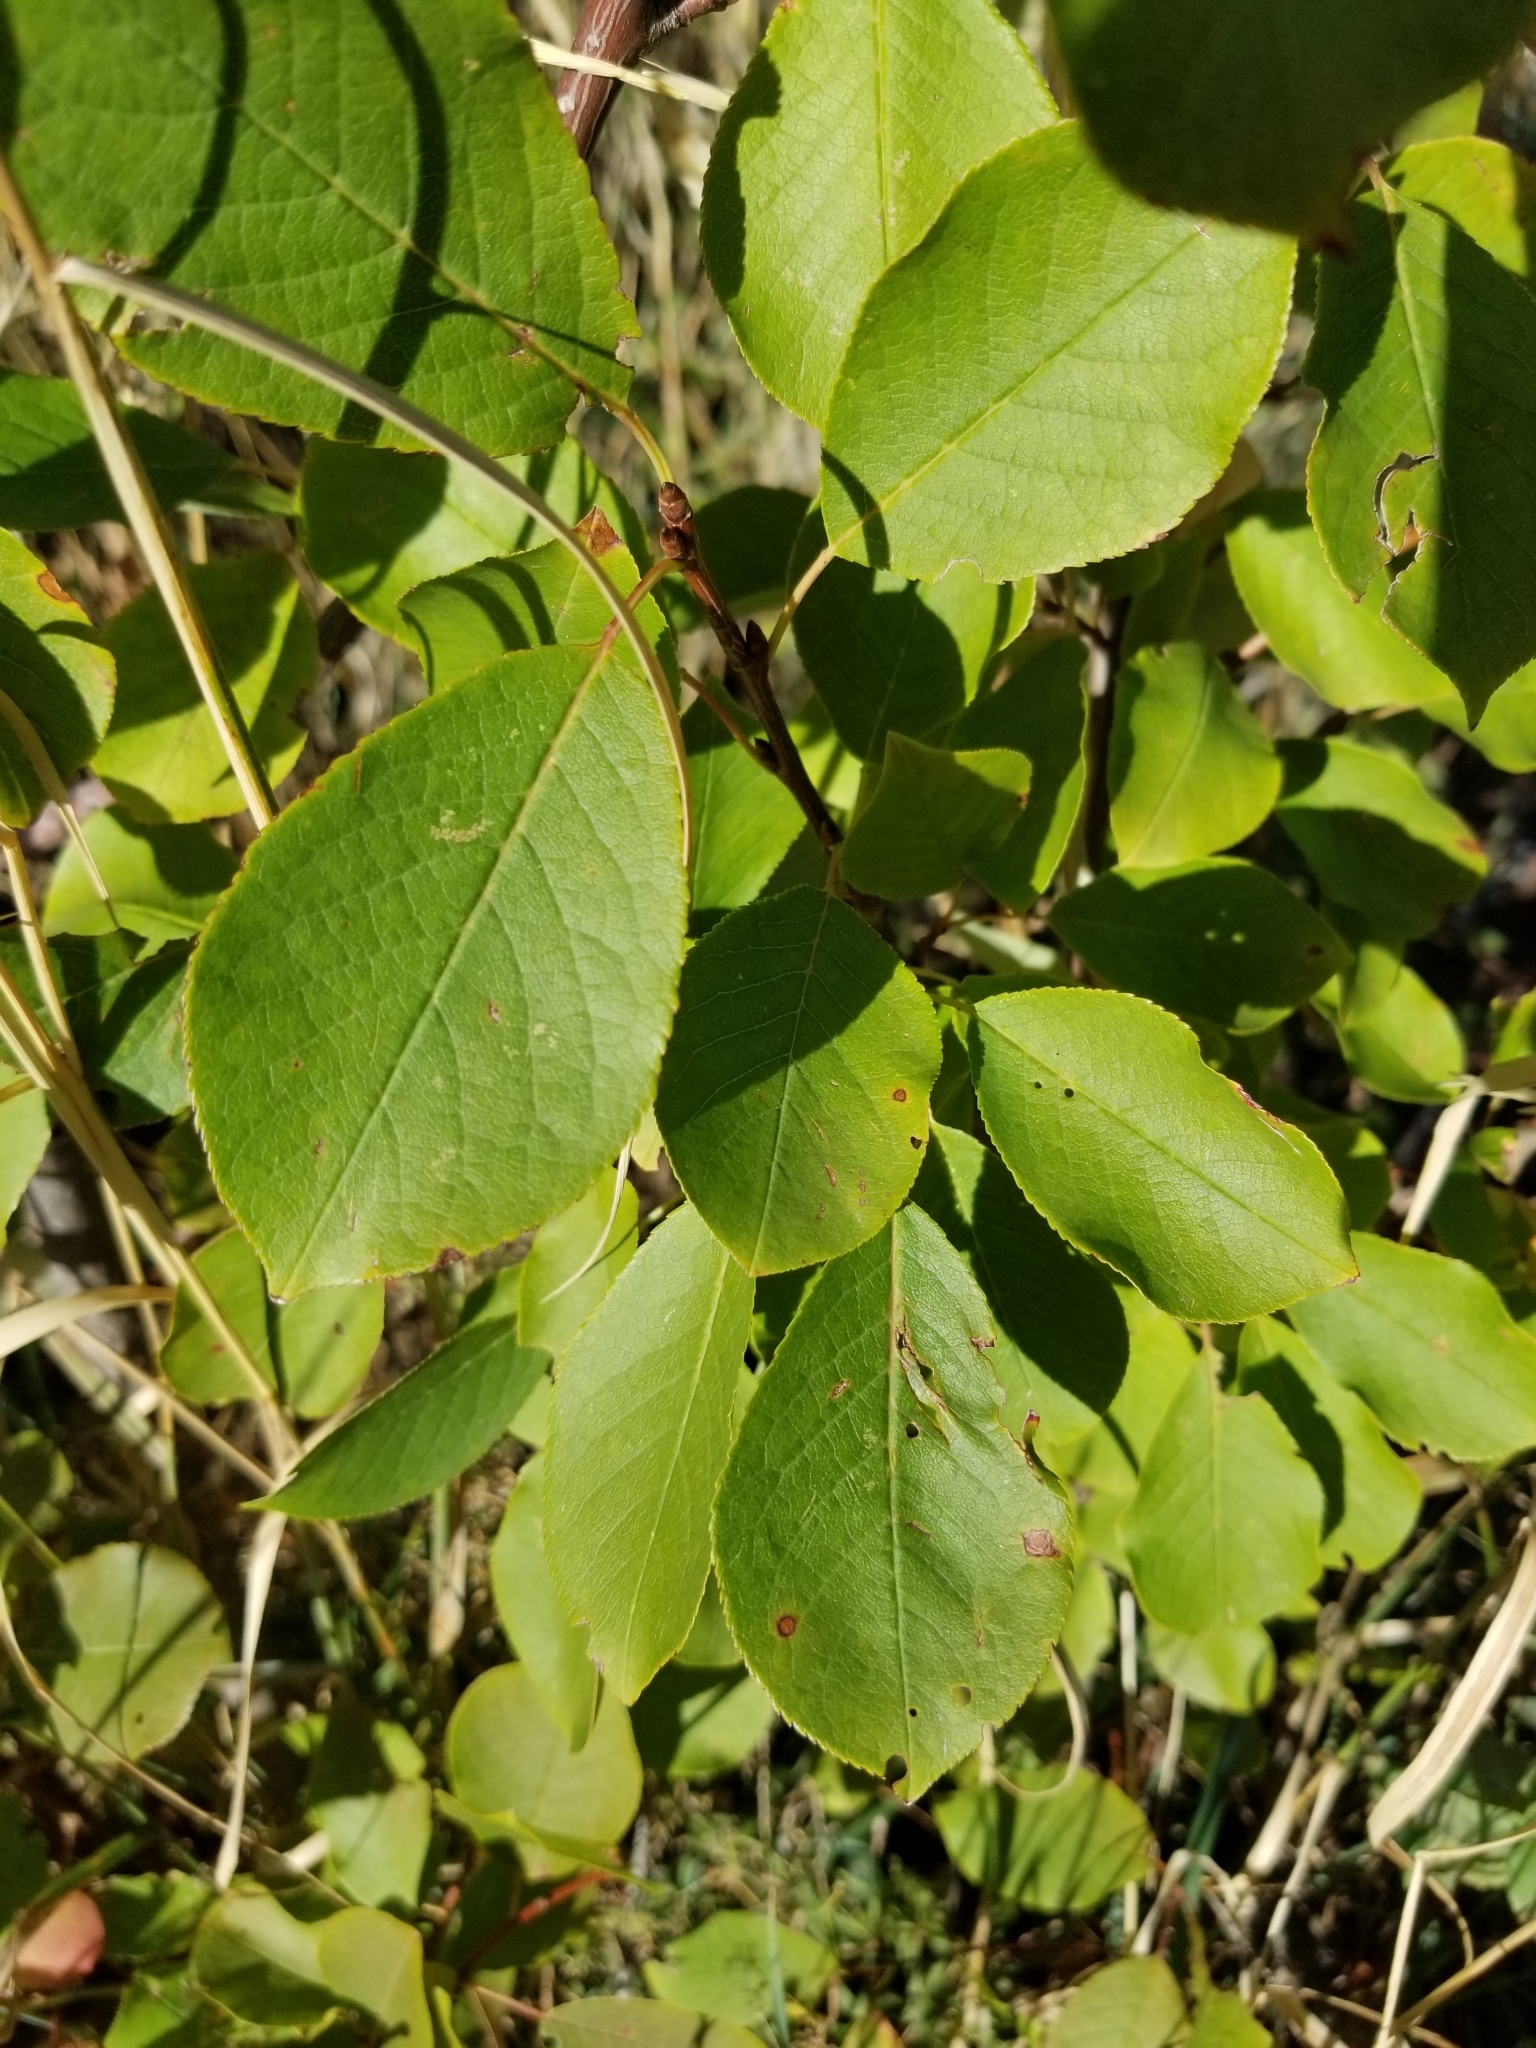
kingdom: Plantae
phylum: Tracheophyta
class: Magnoliopsida
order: Rosales
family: Rosaceae
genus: Prunus
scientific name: Prunus virginiana
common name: Chokecherry
